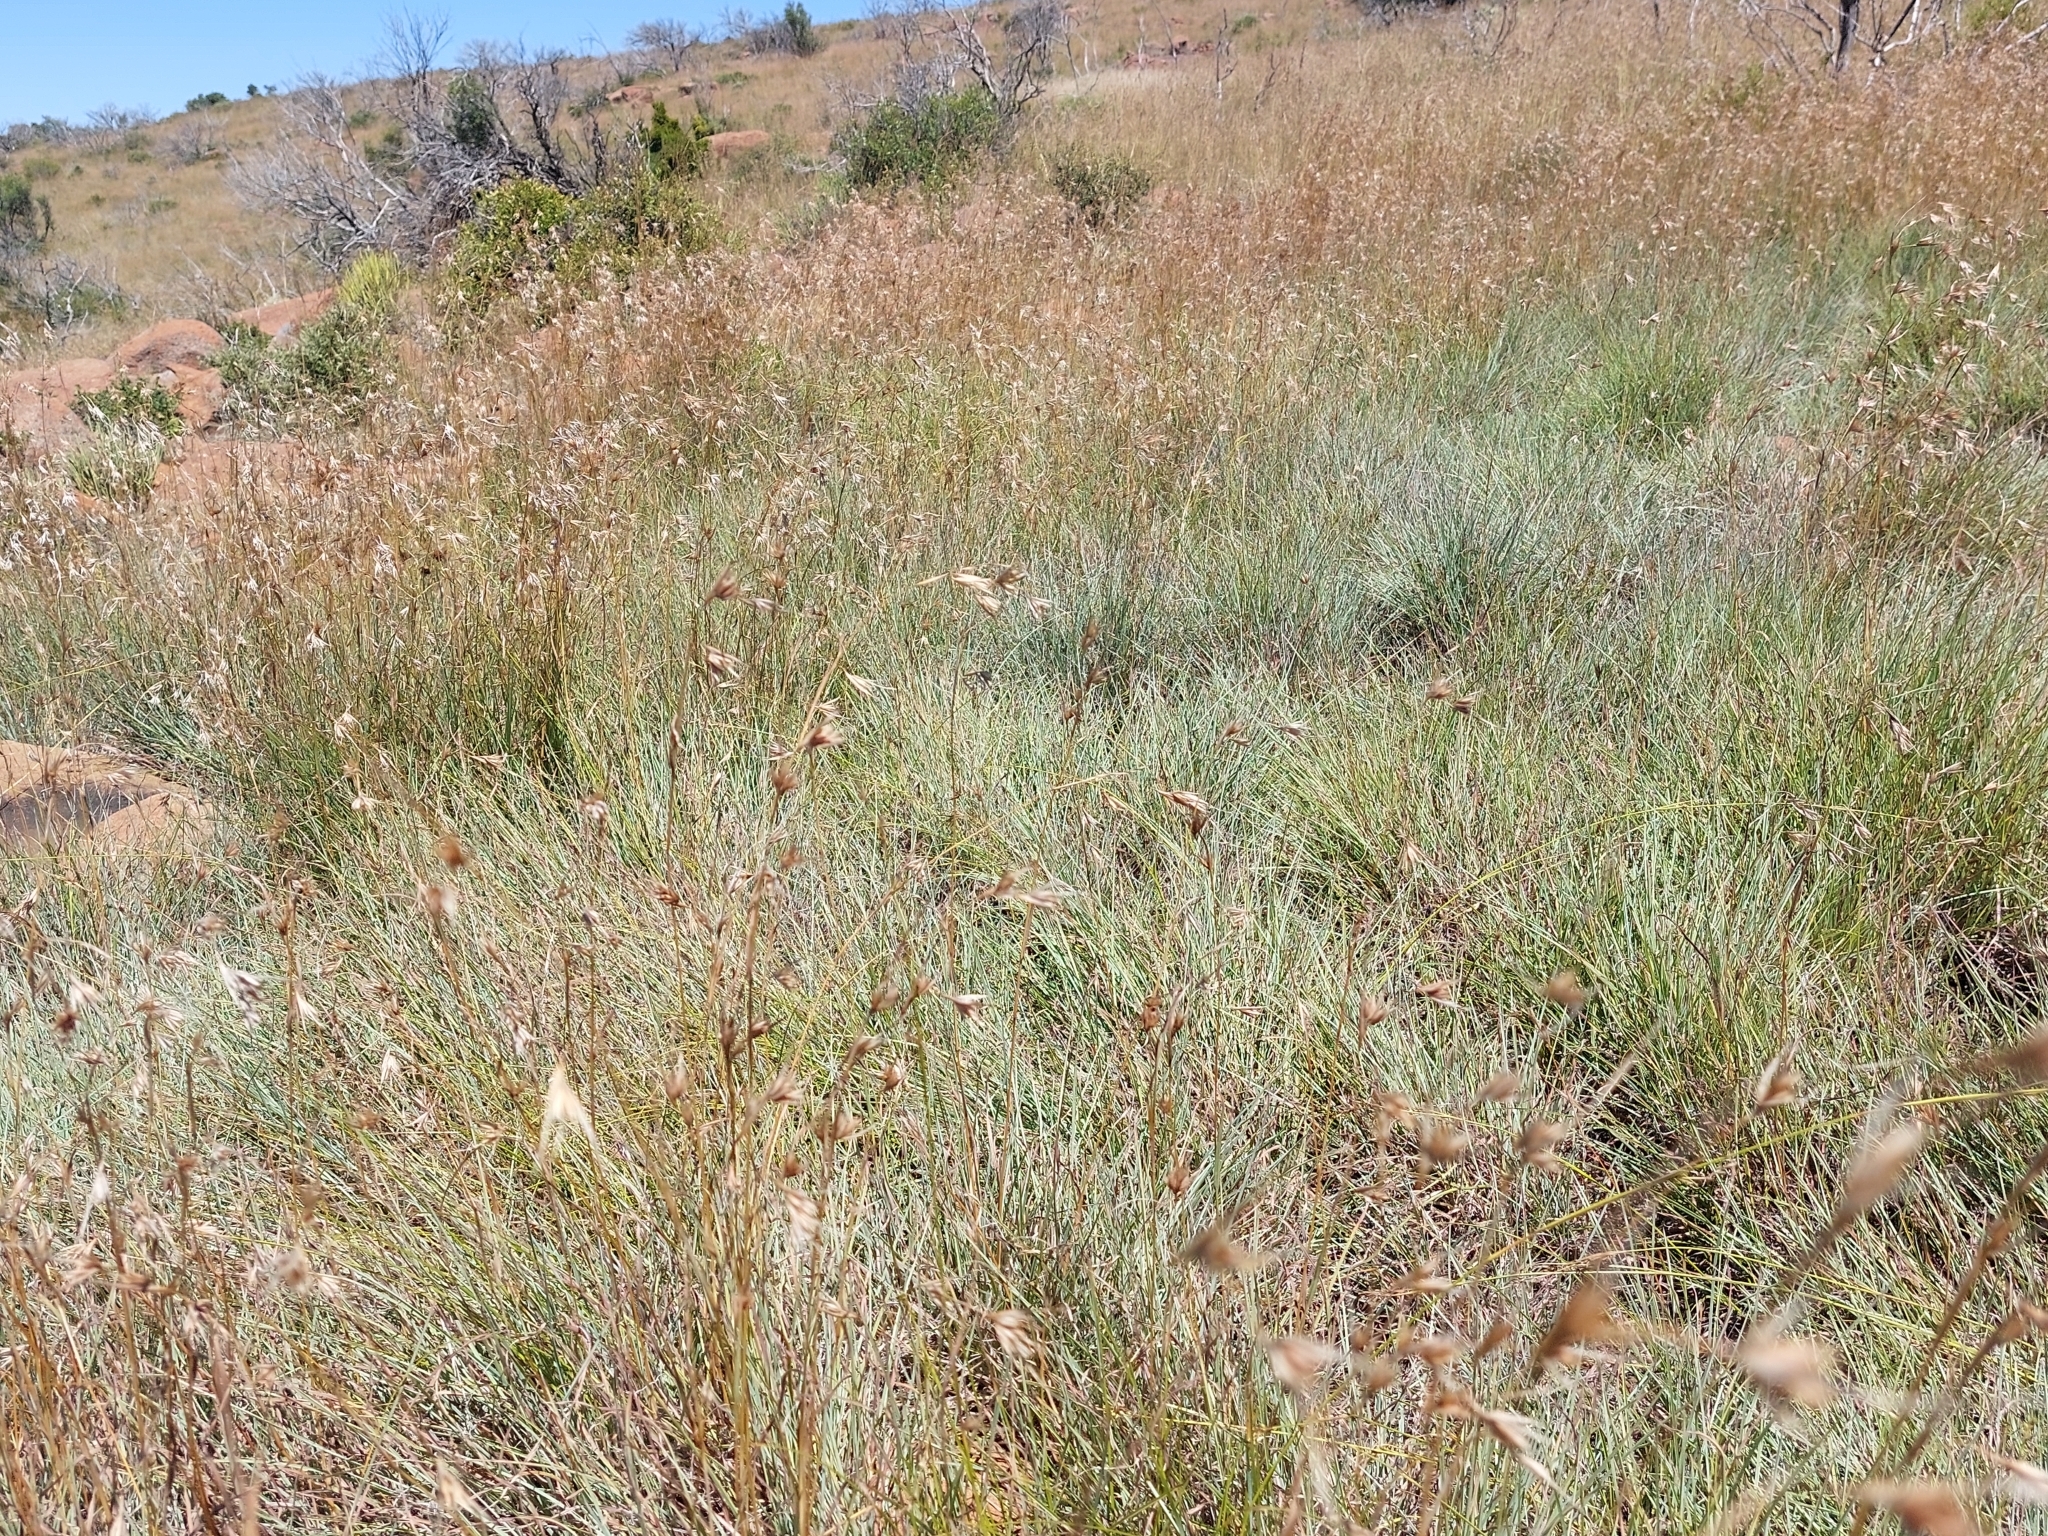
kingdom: Plantae
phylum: Tracheophyta
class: Liliopsida
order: Poales
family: Poaceae
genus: Themeda
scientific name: Themeda triandra
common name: Kangaroo grass
